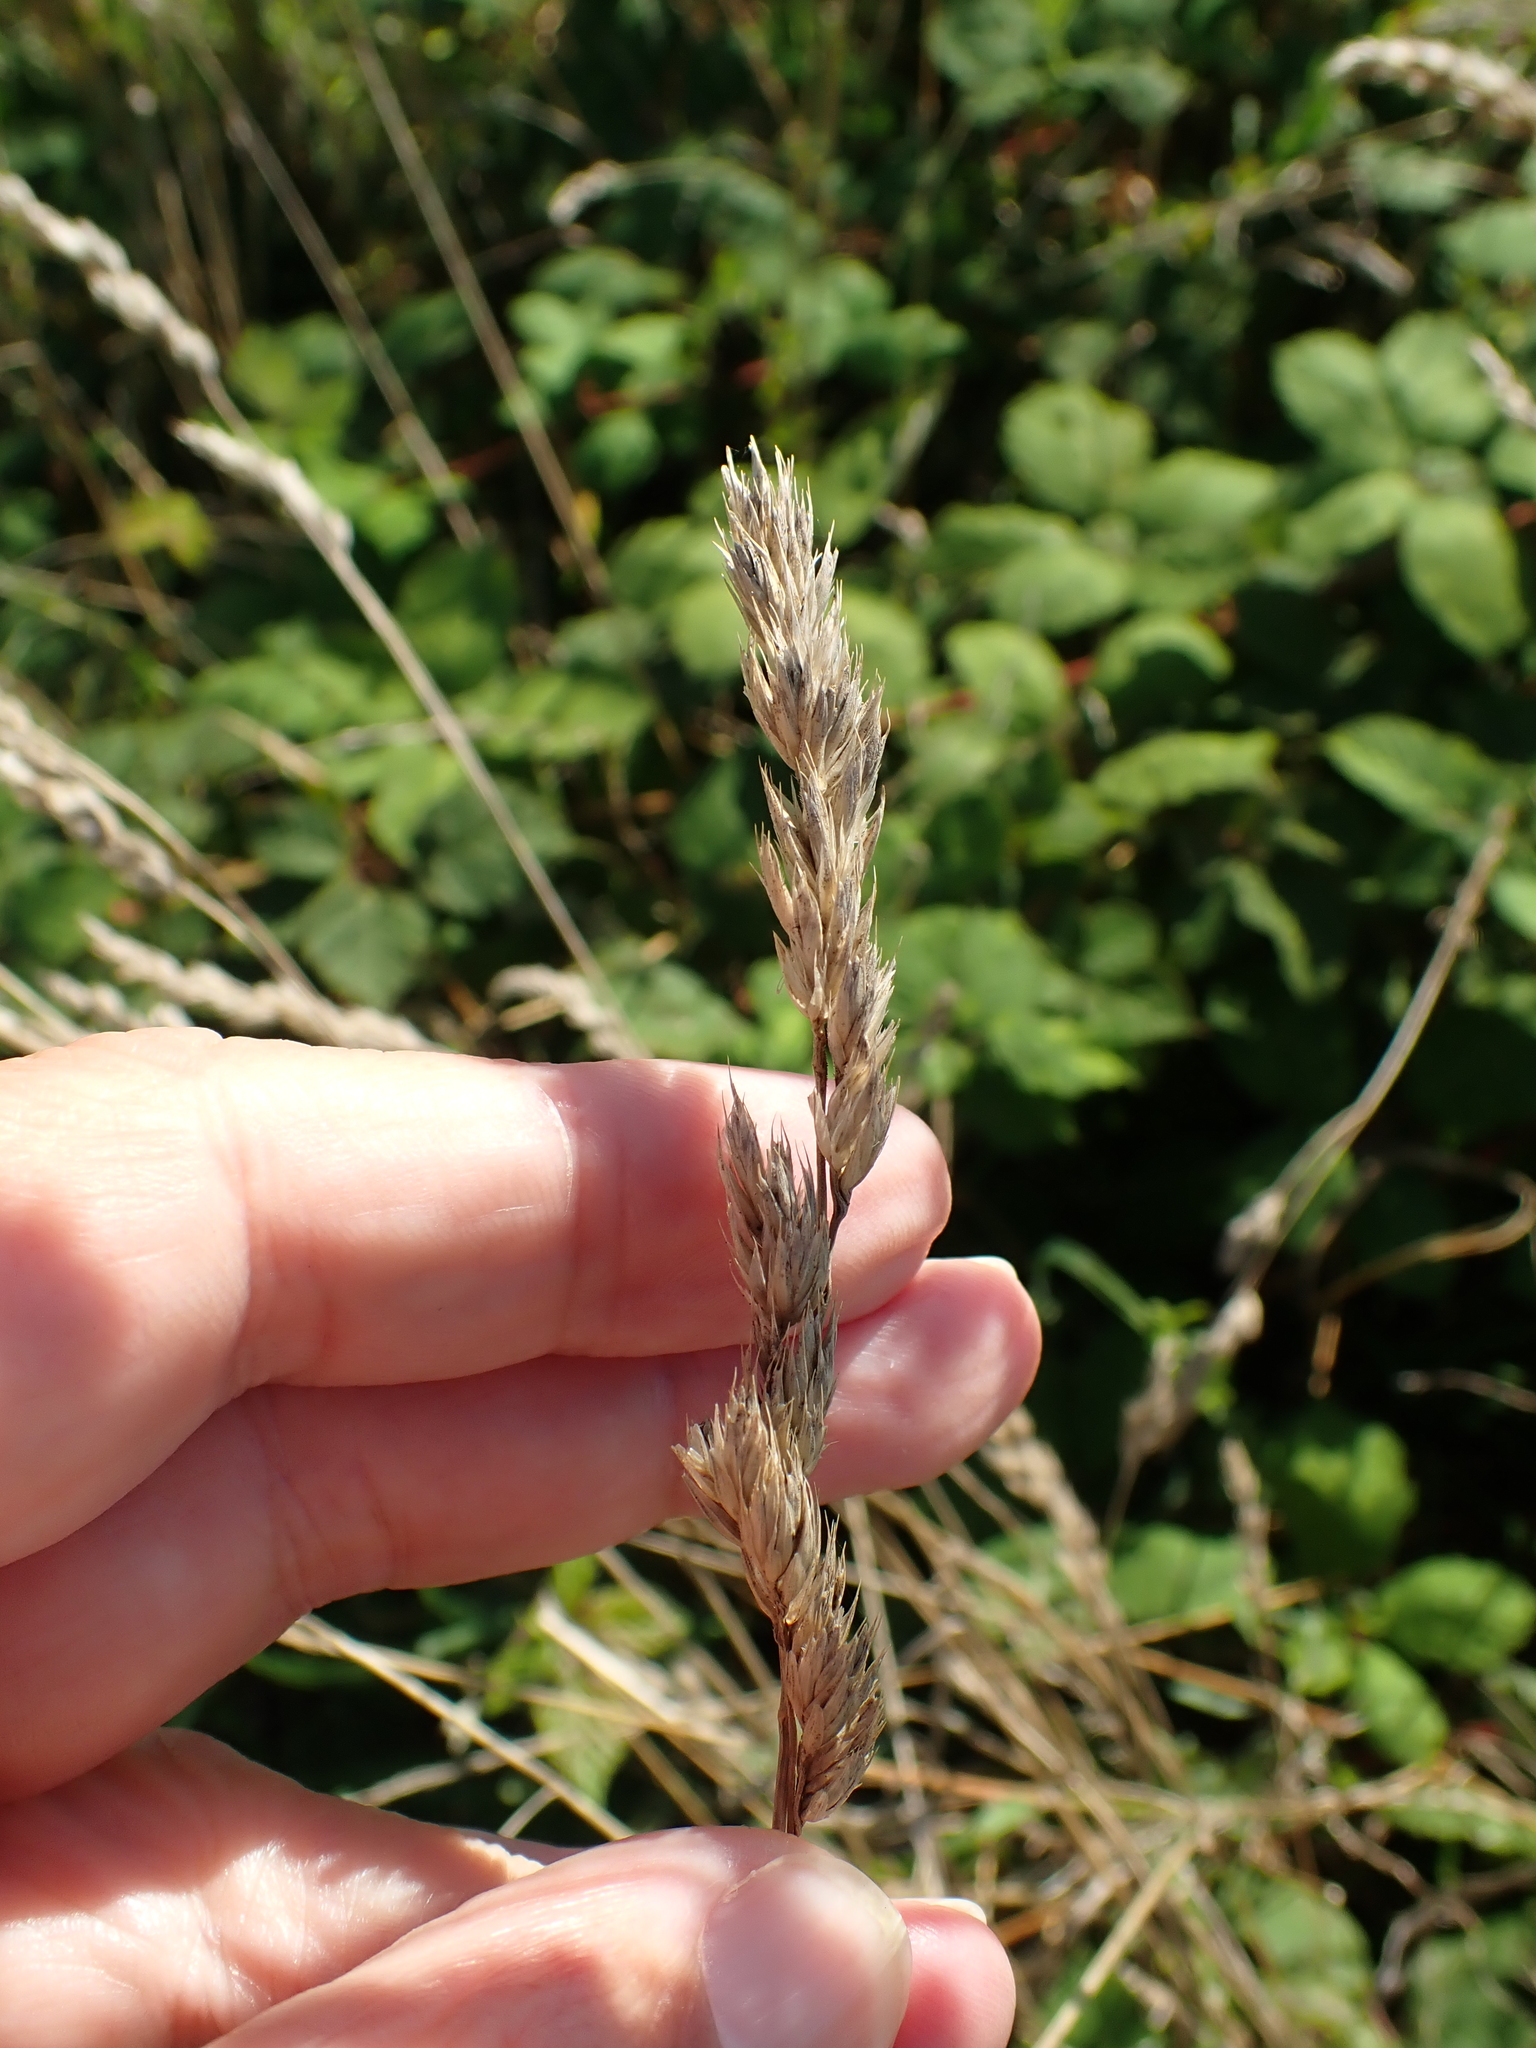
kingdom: Plantae
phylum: Tracheophyta
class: Liliopsida
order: Poales
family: Poaceae
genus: Dactylis
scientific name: Dactylis glomerata
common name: Orchardgrass
